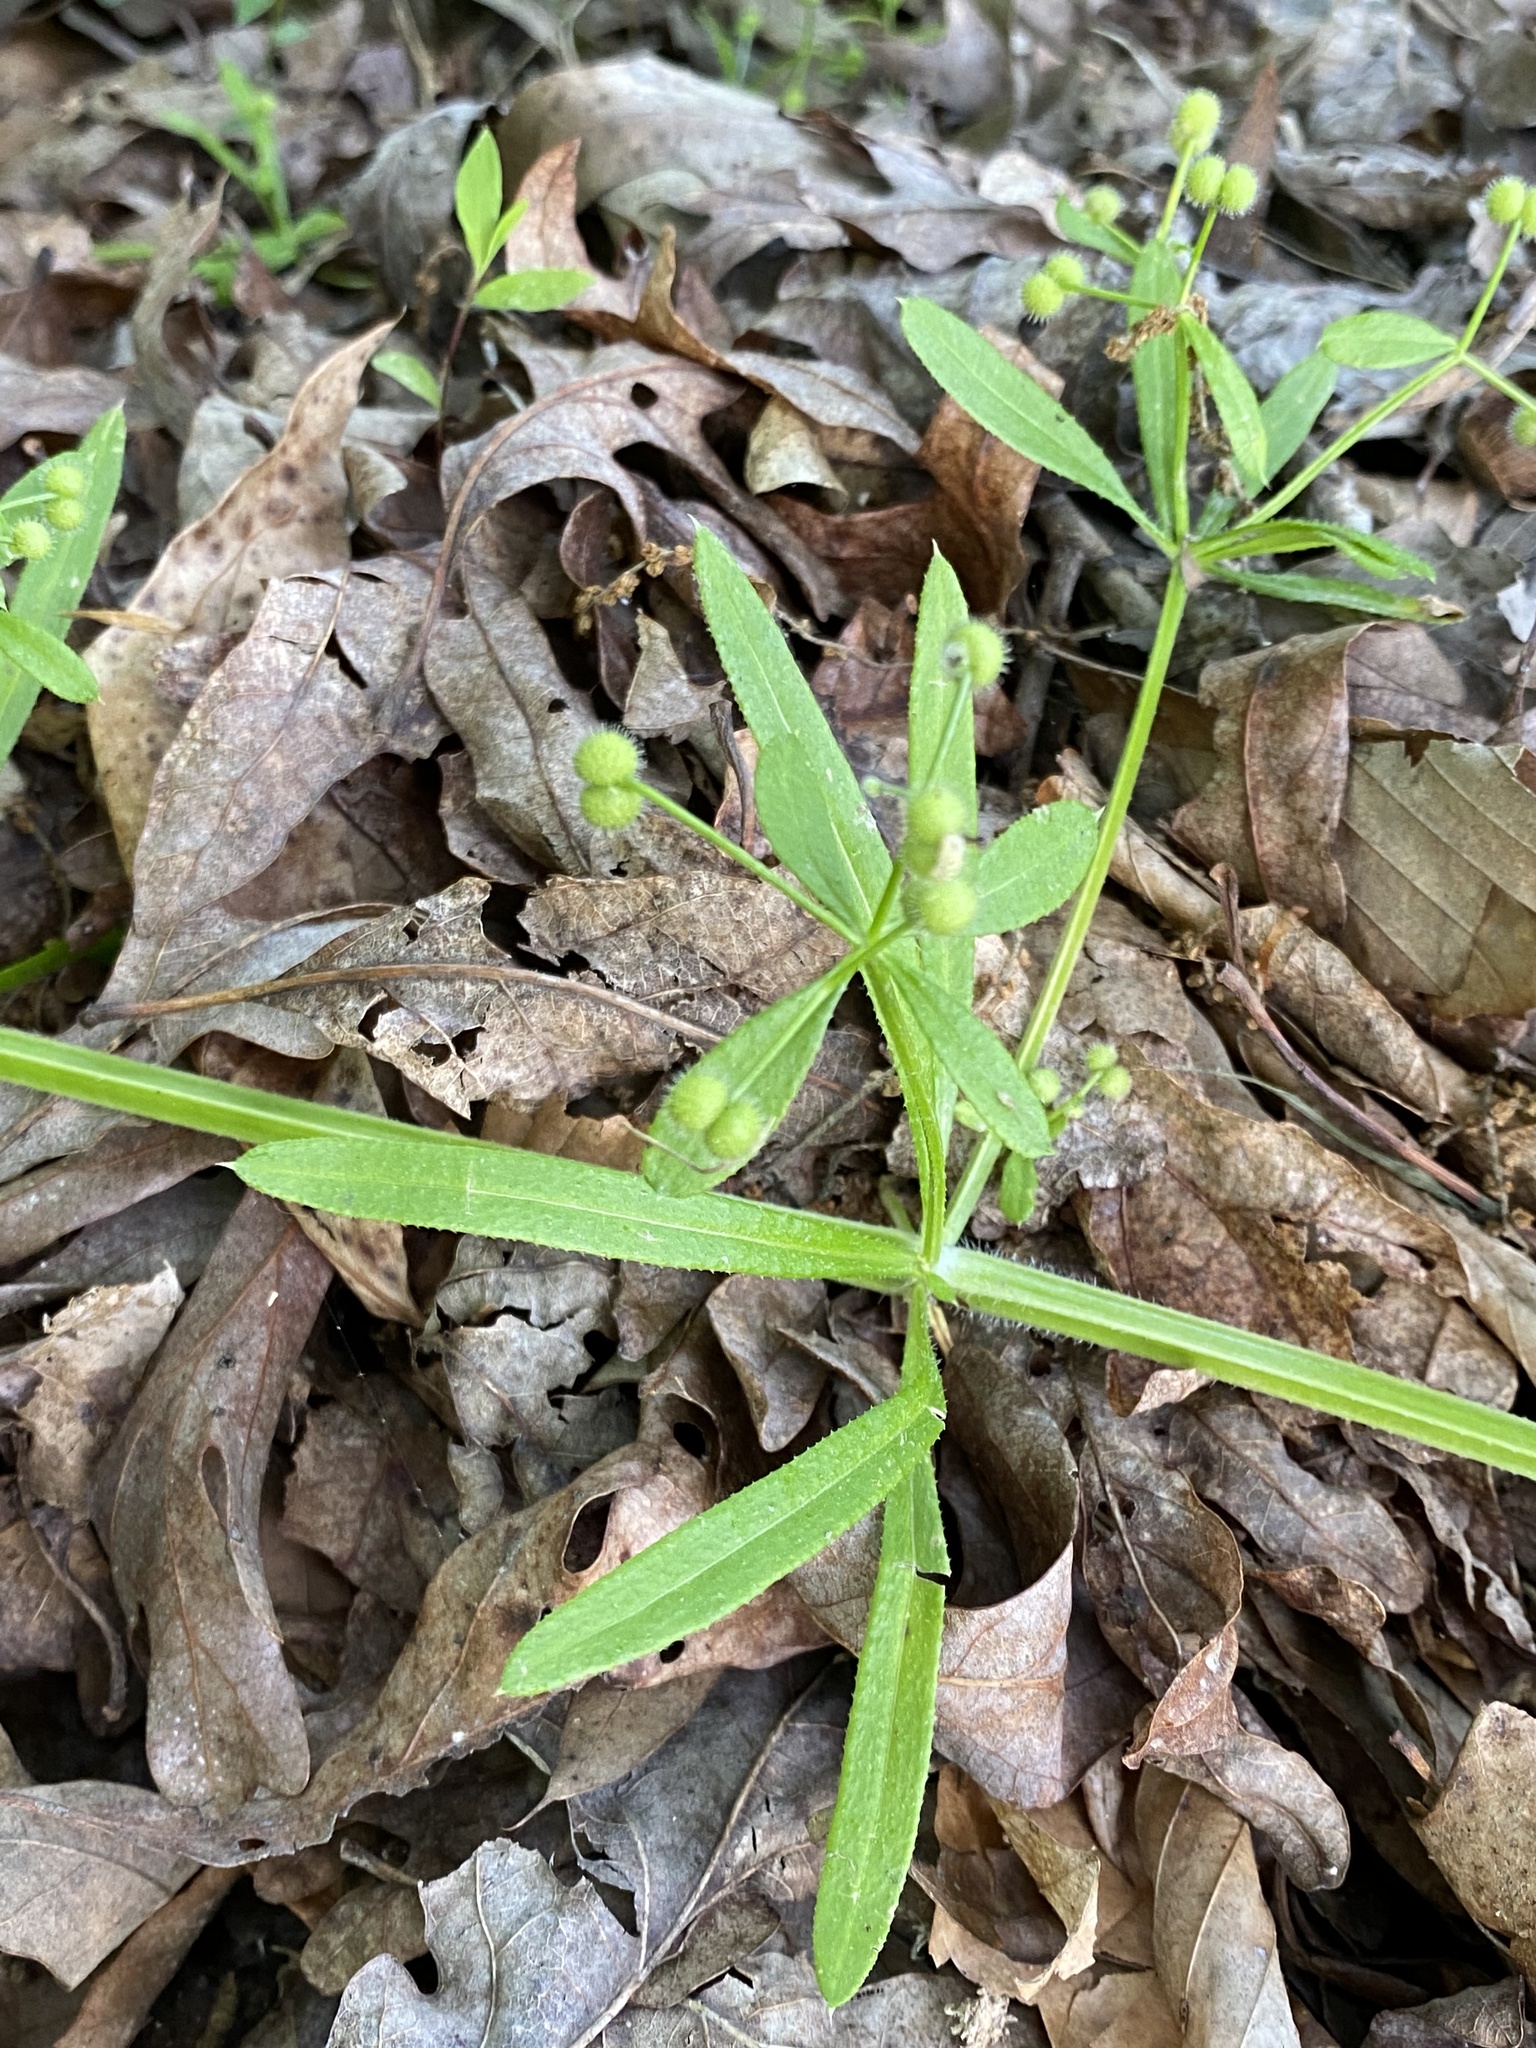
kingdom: Plantae
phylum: Tracheophyta
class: Magnoliopsida
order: Gentianales
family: Rubiaceae
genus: Galium
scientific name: Galium aparine
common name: Cleavers
